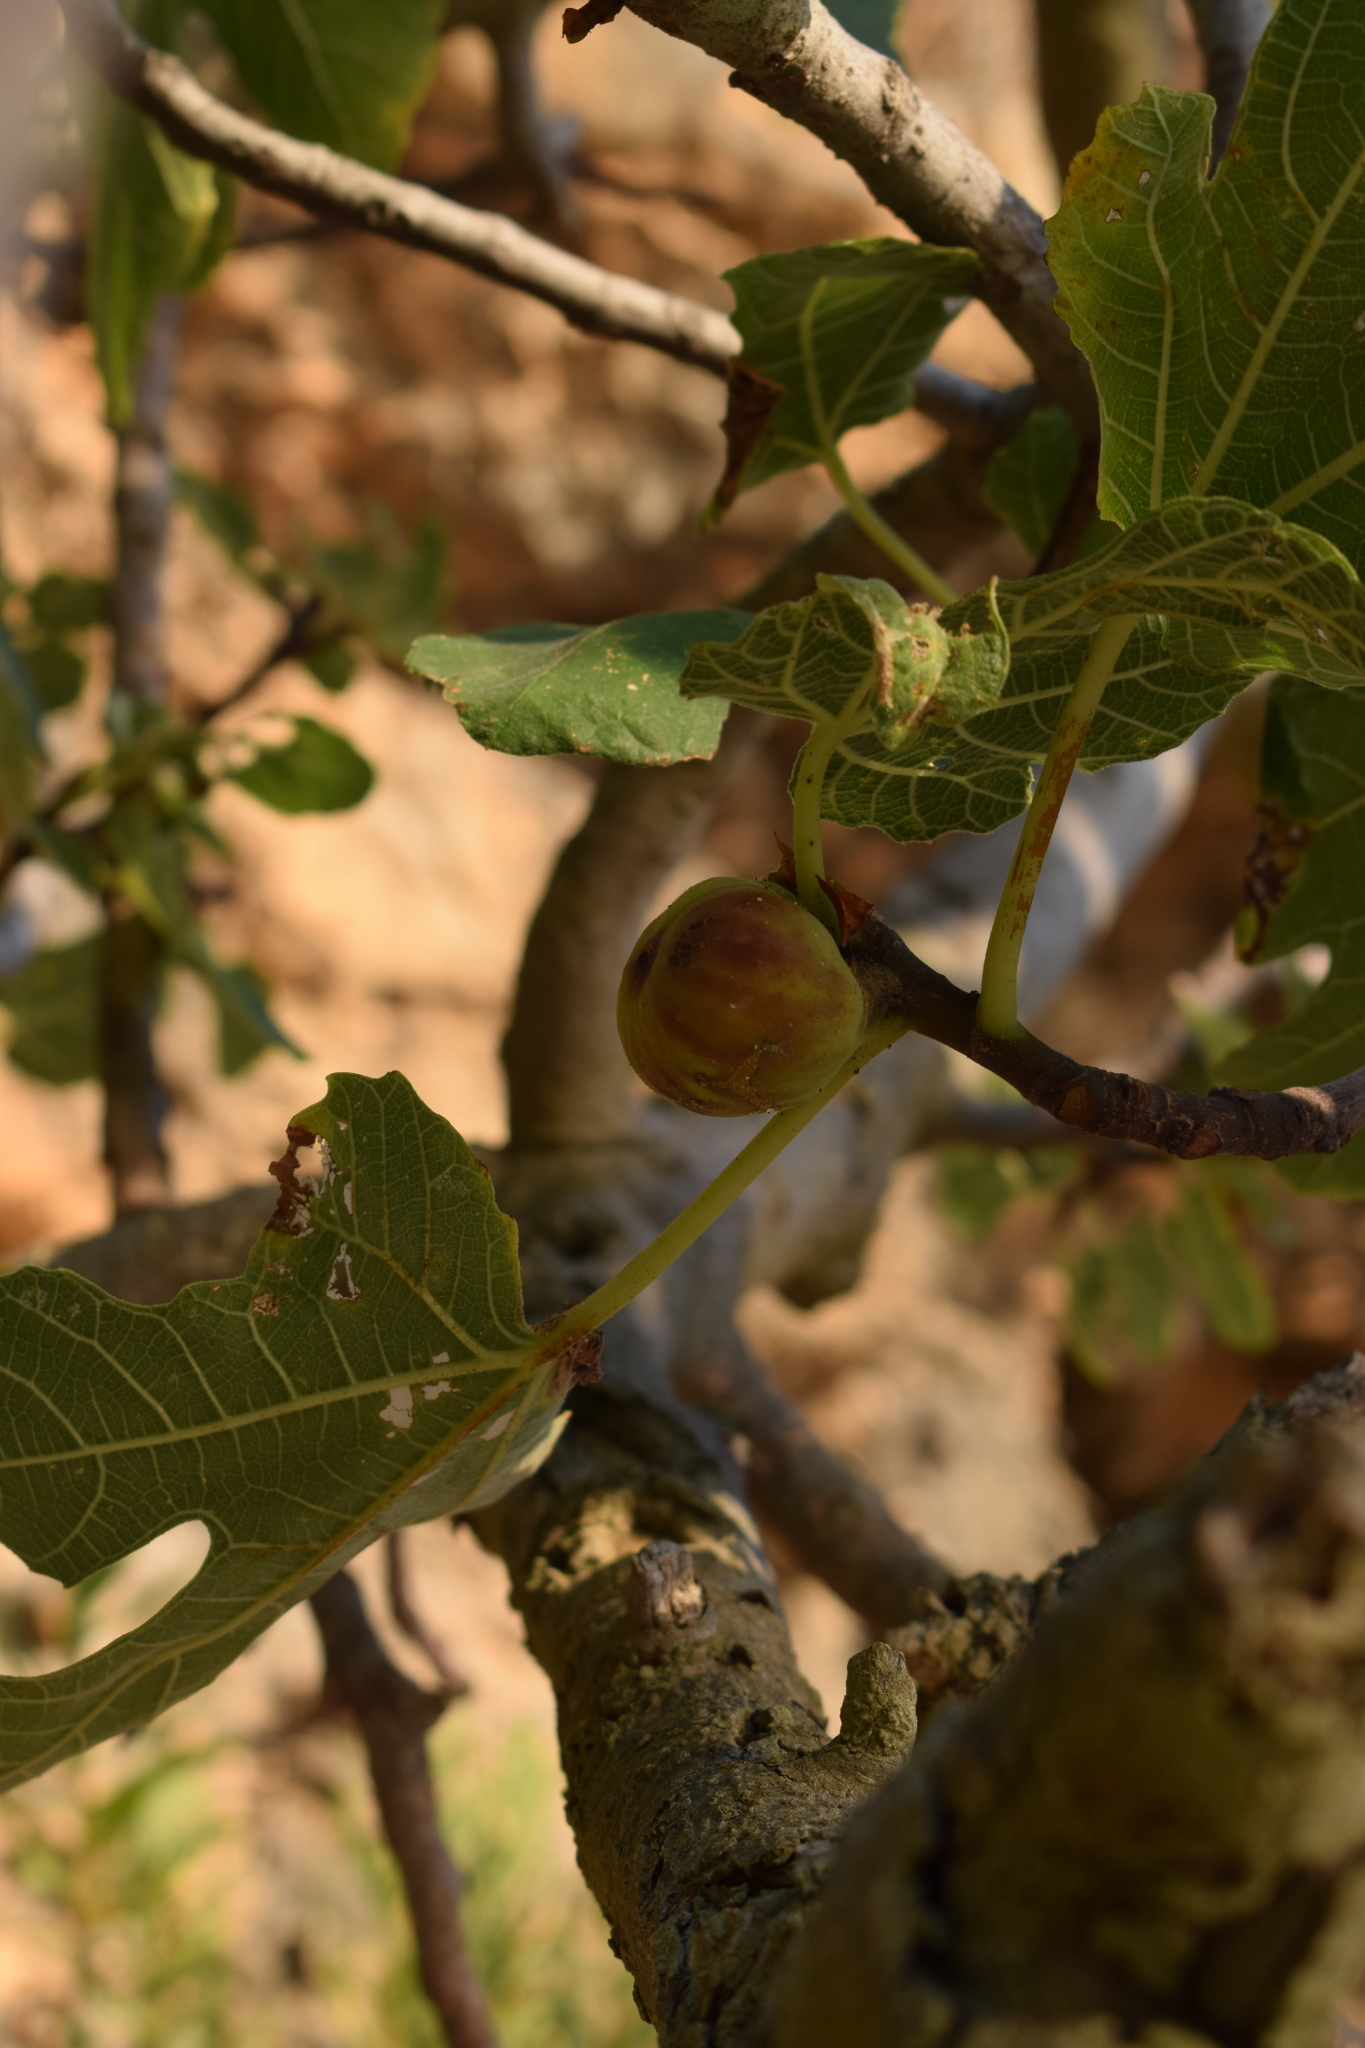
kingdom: Plantae
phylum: Tracheophyta
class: Magnoliopsida
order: Rosales
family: Moraceae
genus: Ficus
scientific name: Ficus carica
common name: Fig
